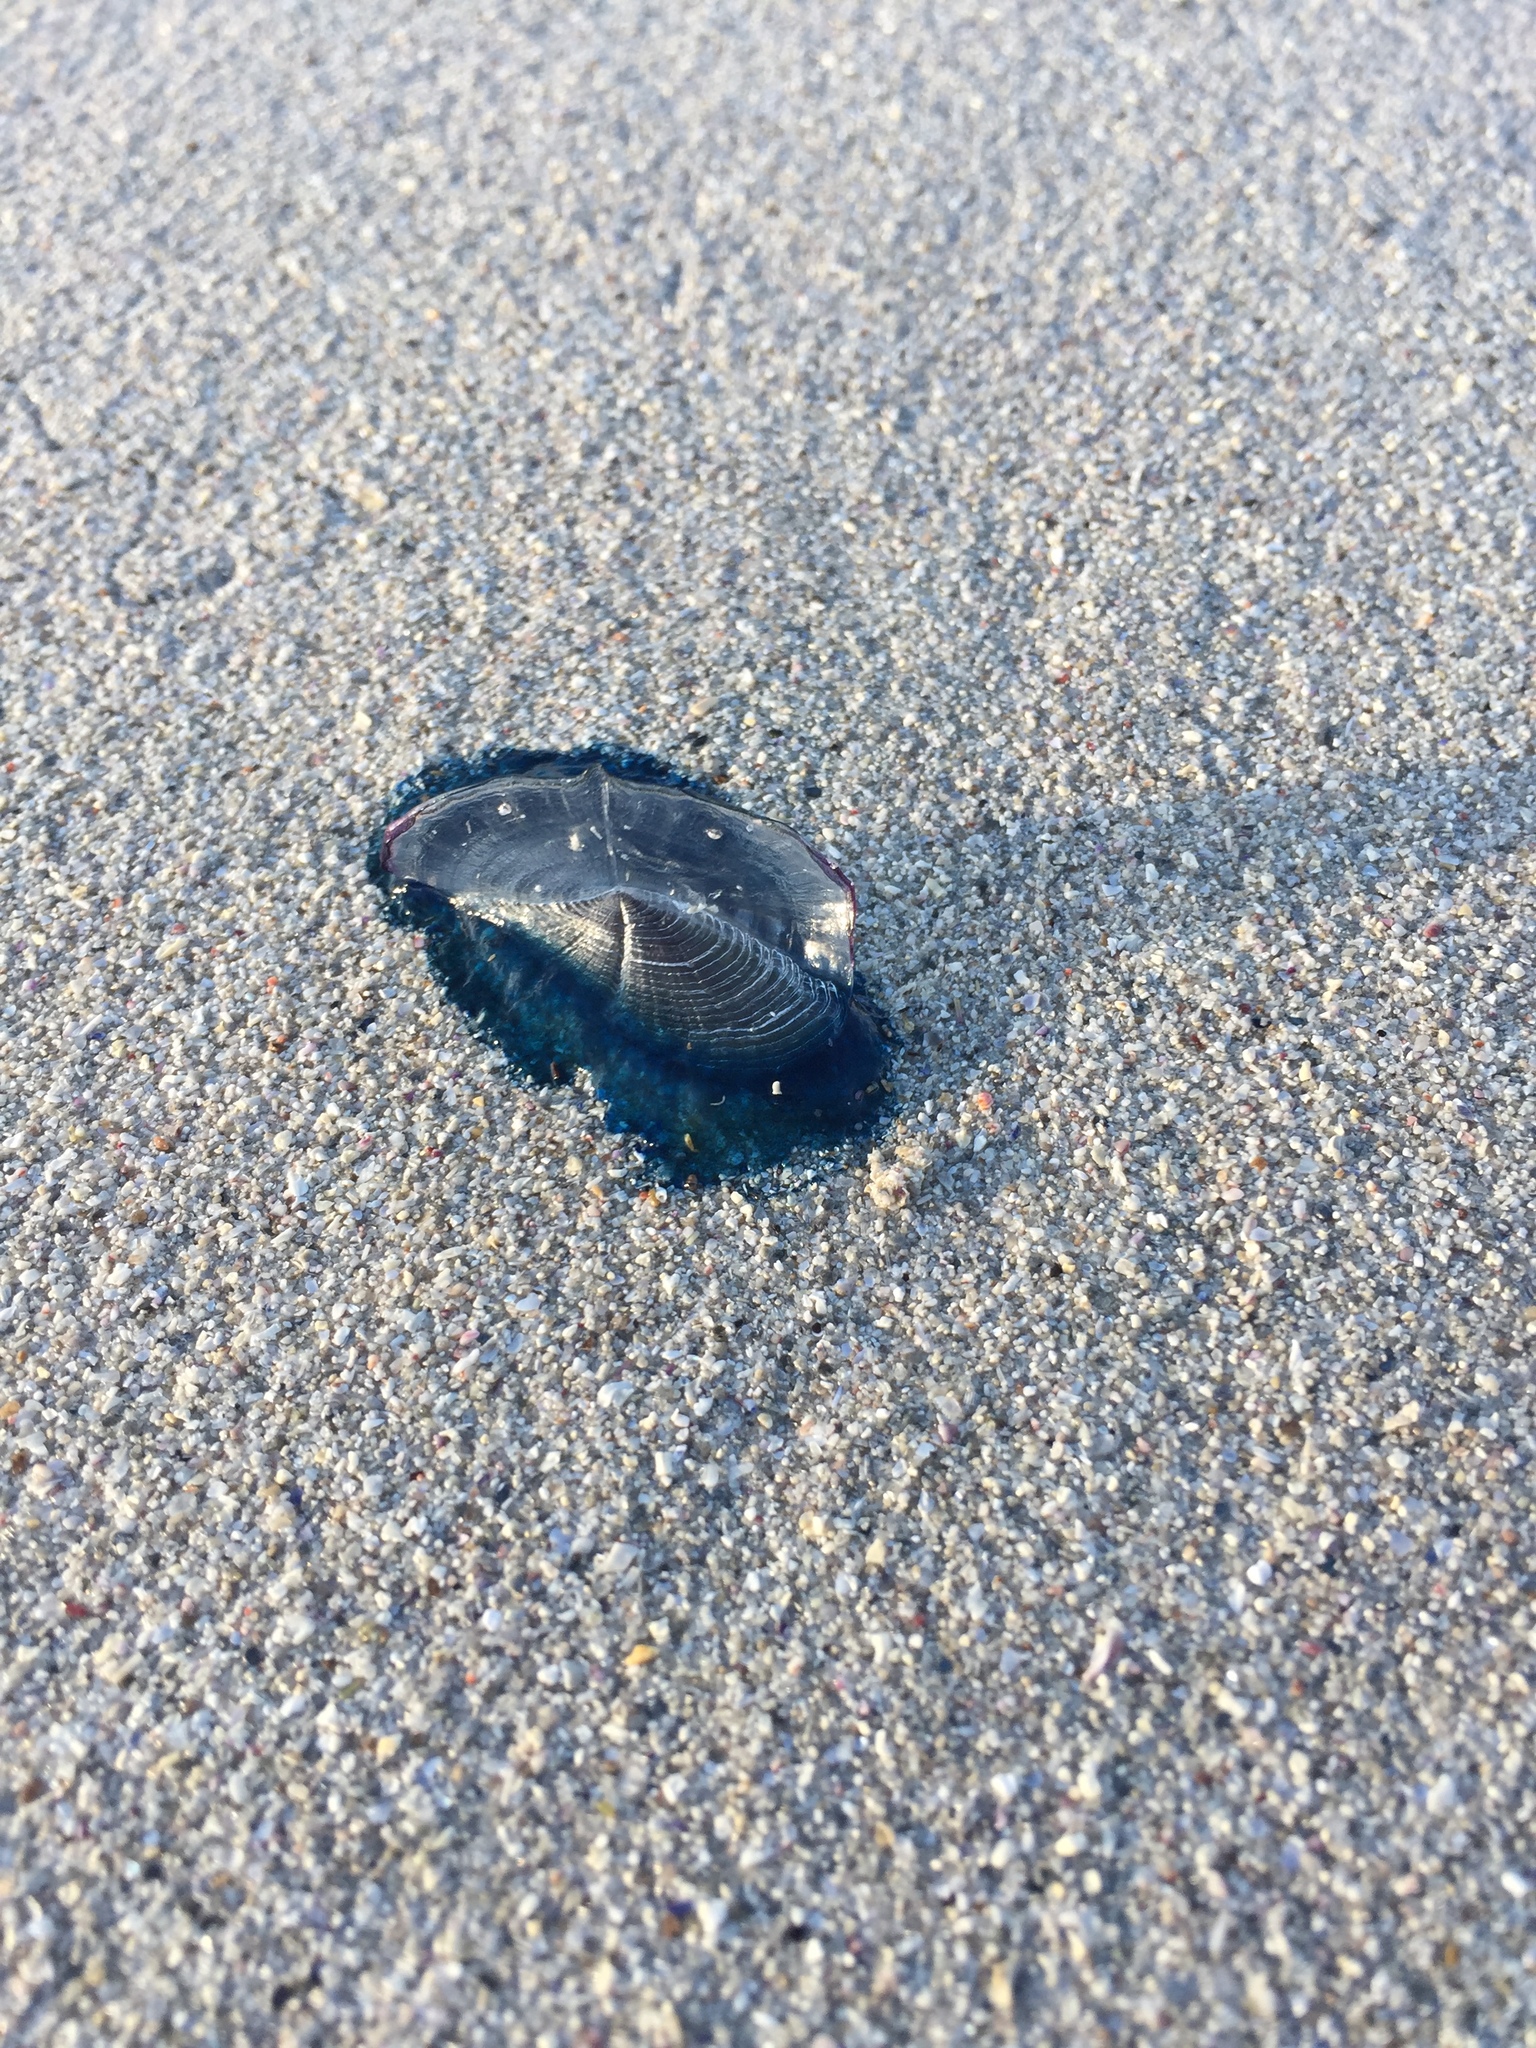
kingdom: Animalia
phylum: Cnidaria
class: Hydrozoa
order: Anthoathecata
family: Porpitidae
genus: Velella
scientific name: Velella velella
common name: By-the-wind-sailor
